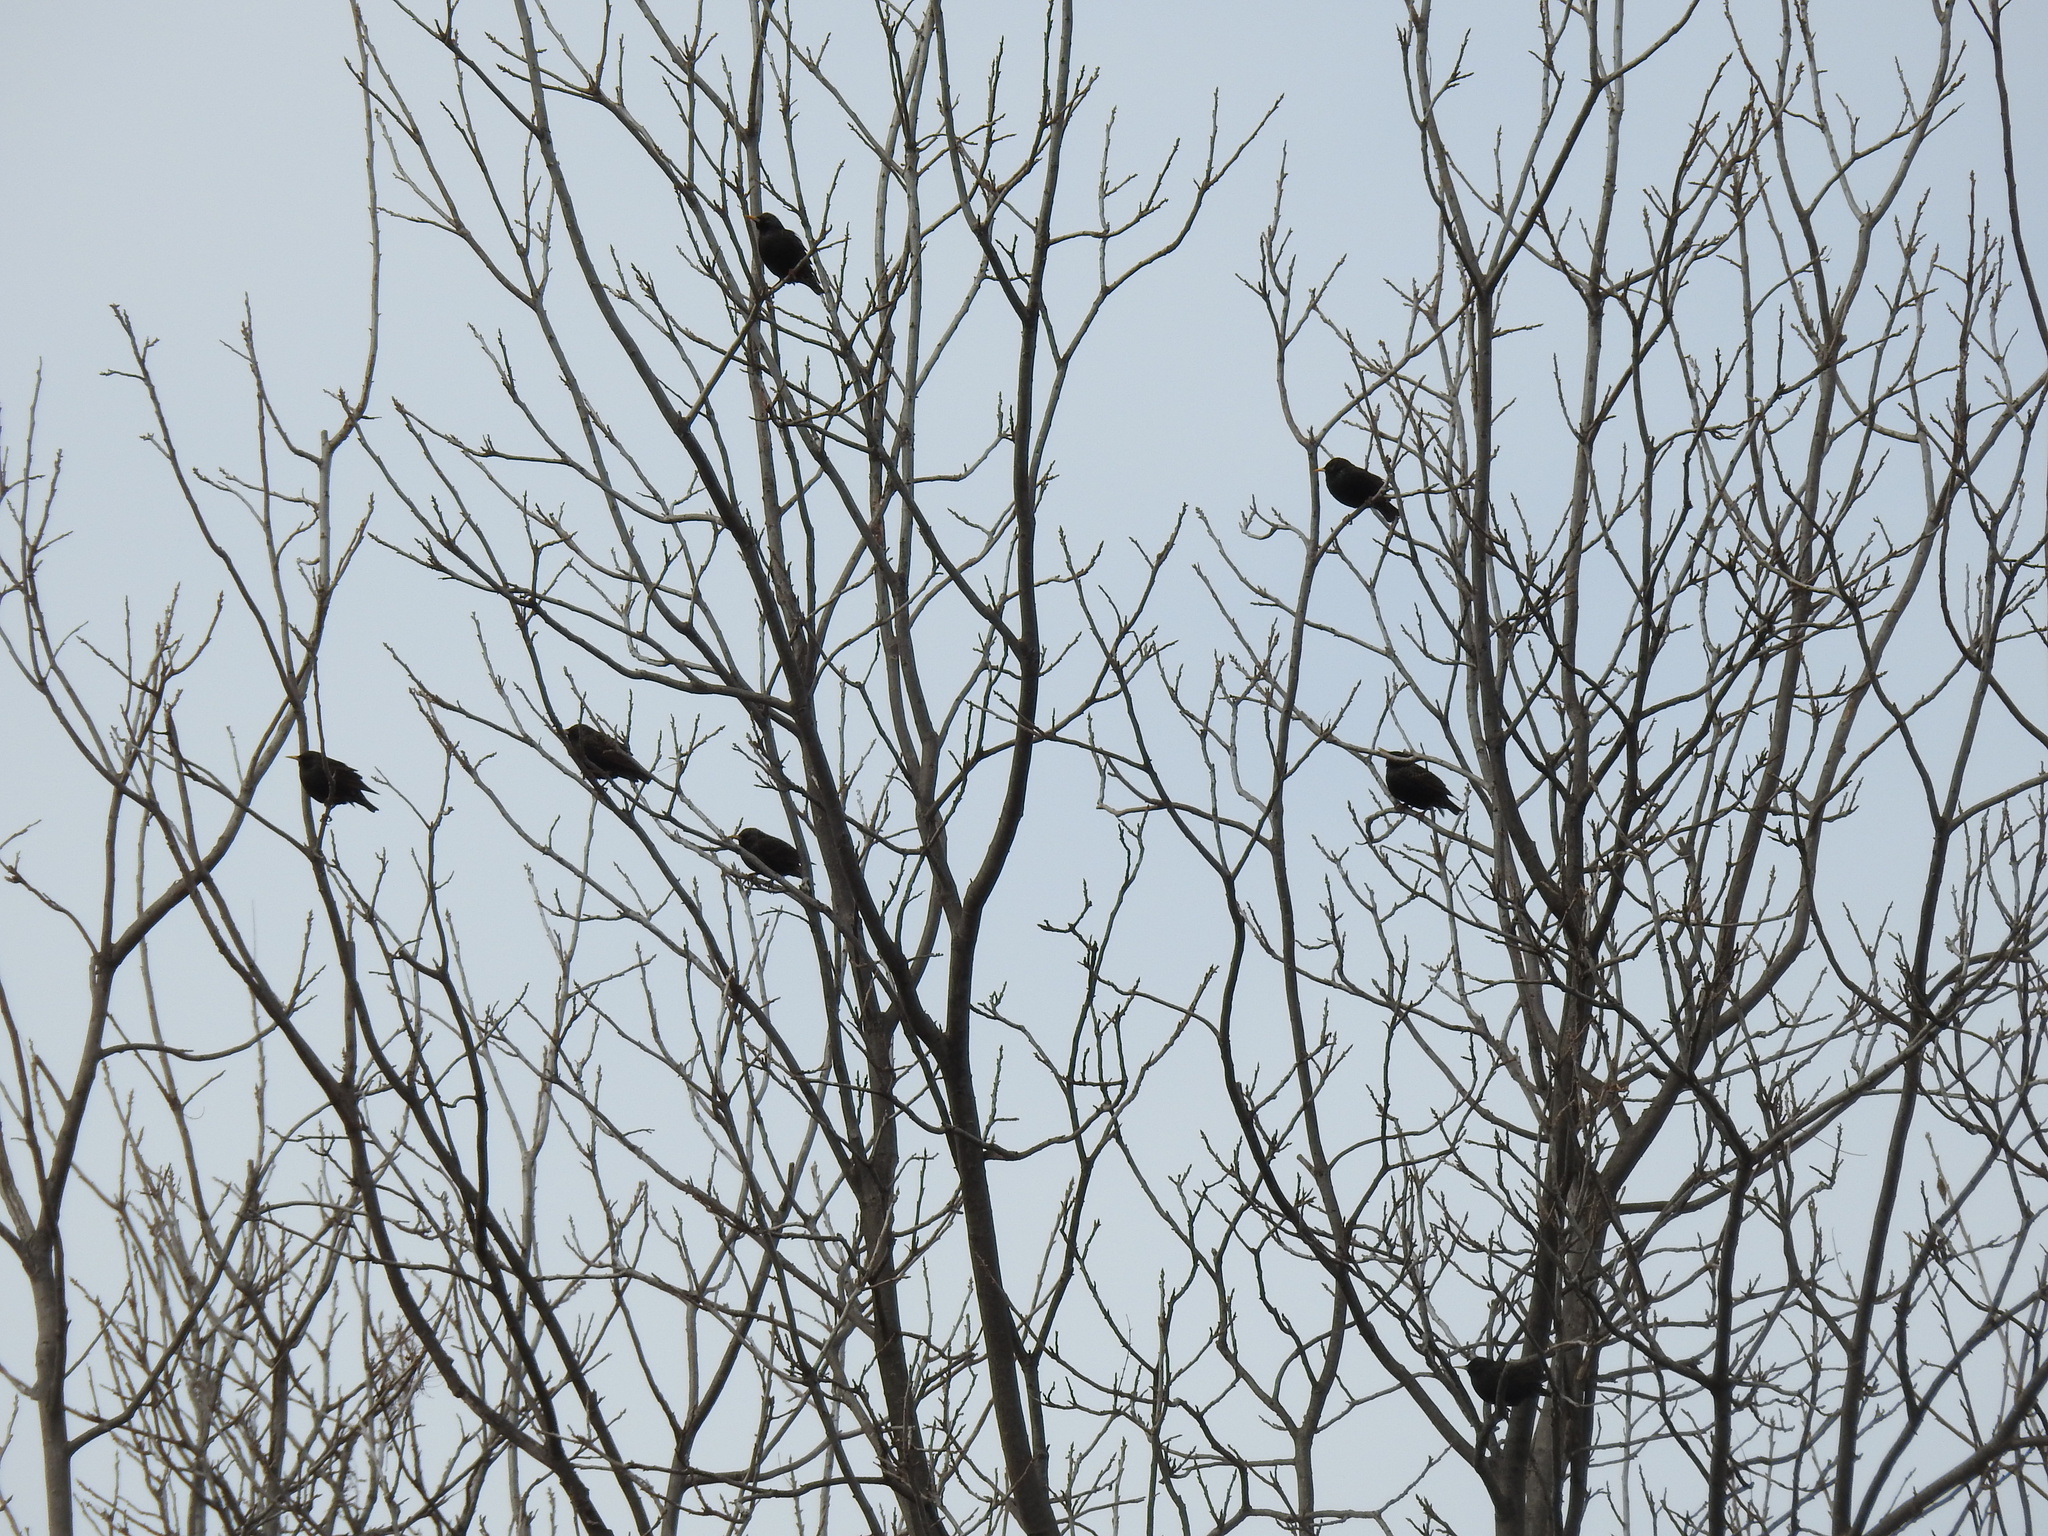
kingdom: Animalia
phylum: Chordata
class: Aves
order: Passeriformes
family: Sturnidae
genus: Sturnus
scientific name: Sturnus vulgaris
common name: Common starling
